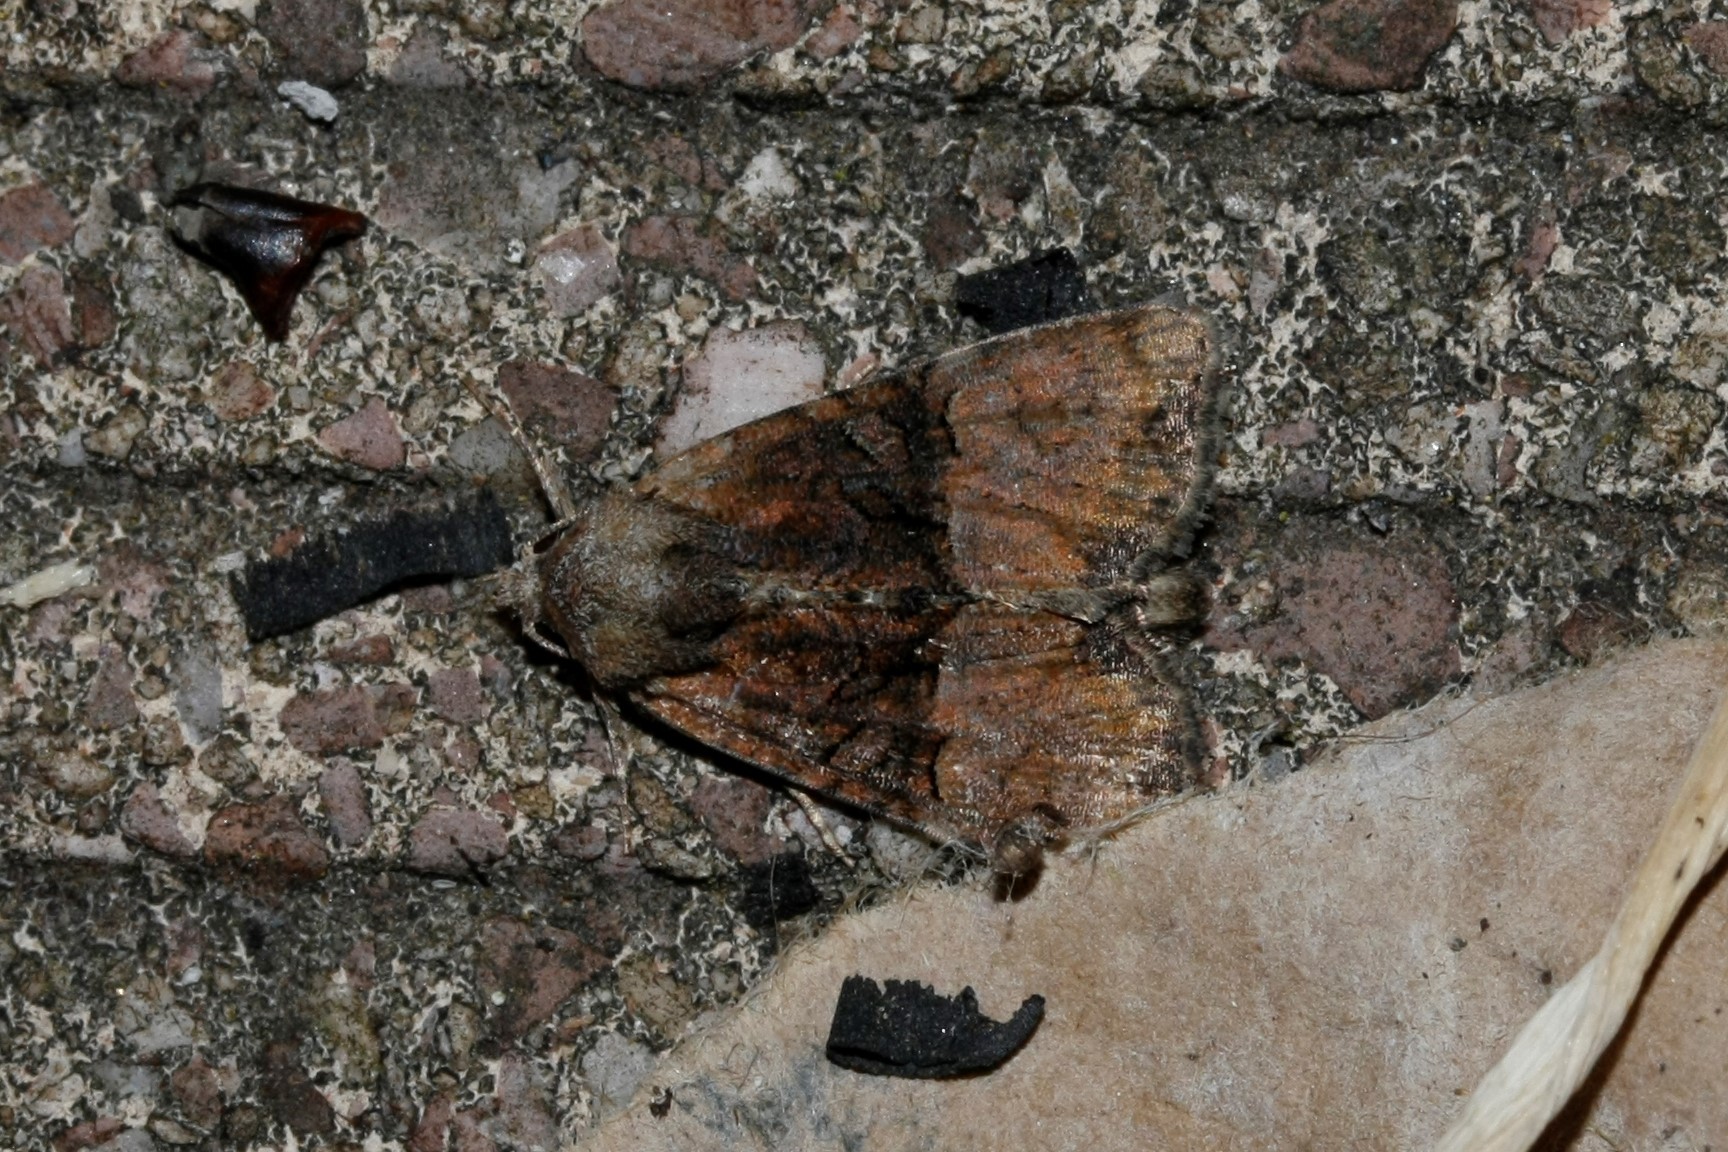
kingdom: Animalia
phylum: Arthropoda
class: Insecta
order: Lepidoptera
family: Noctuidae
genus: Mesoligia
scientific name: Mesoligia furuncula
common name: Cloaked minor
